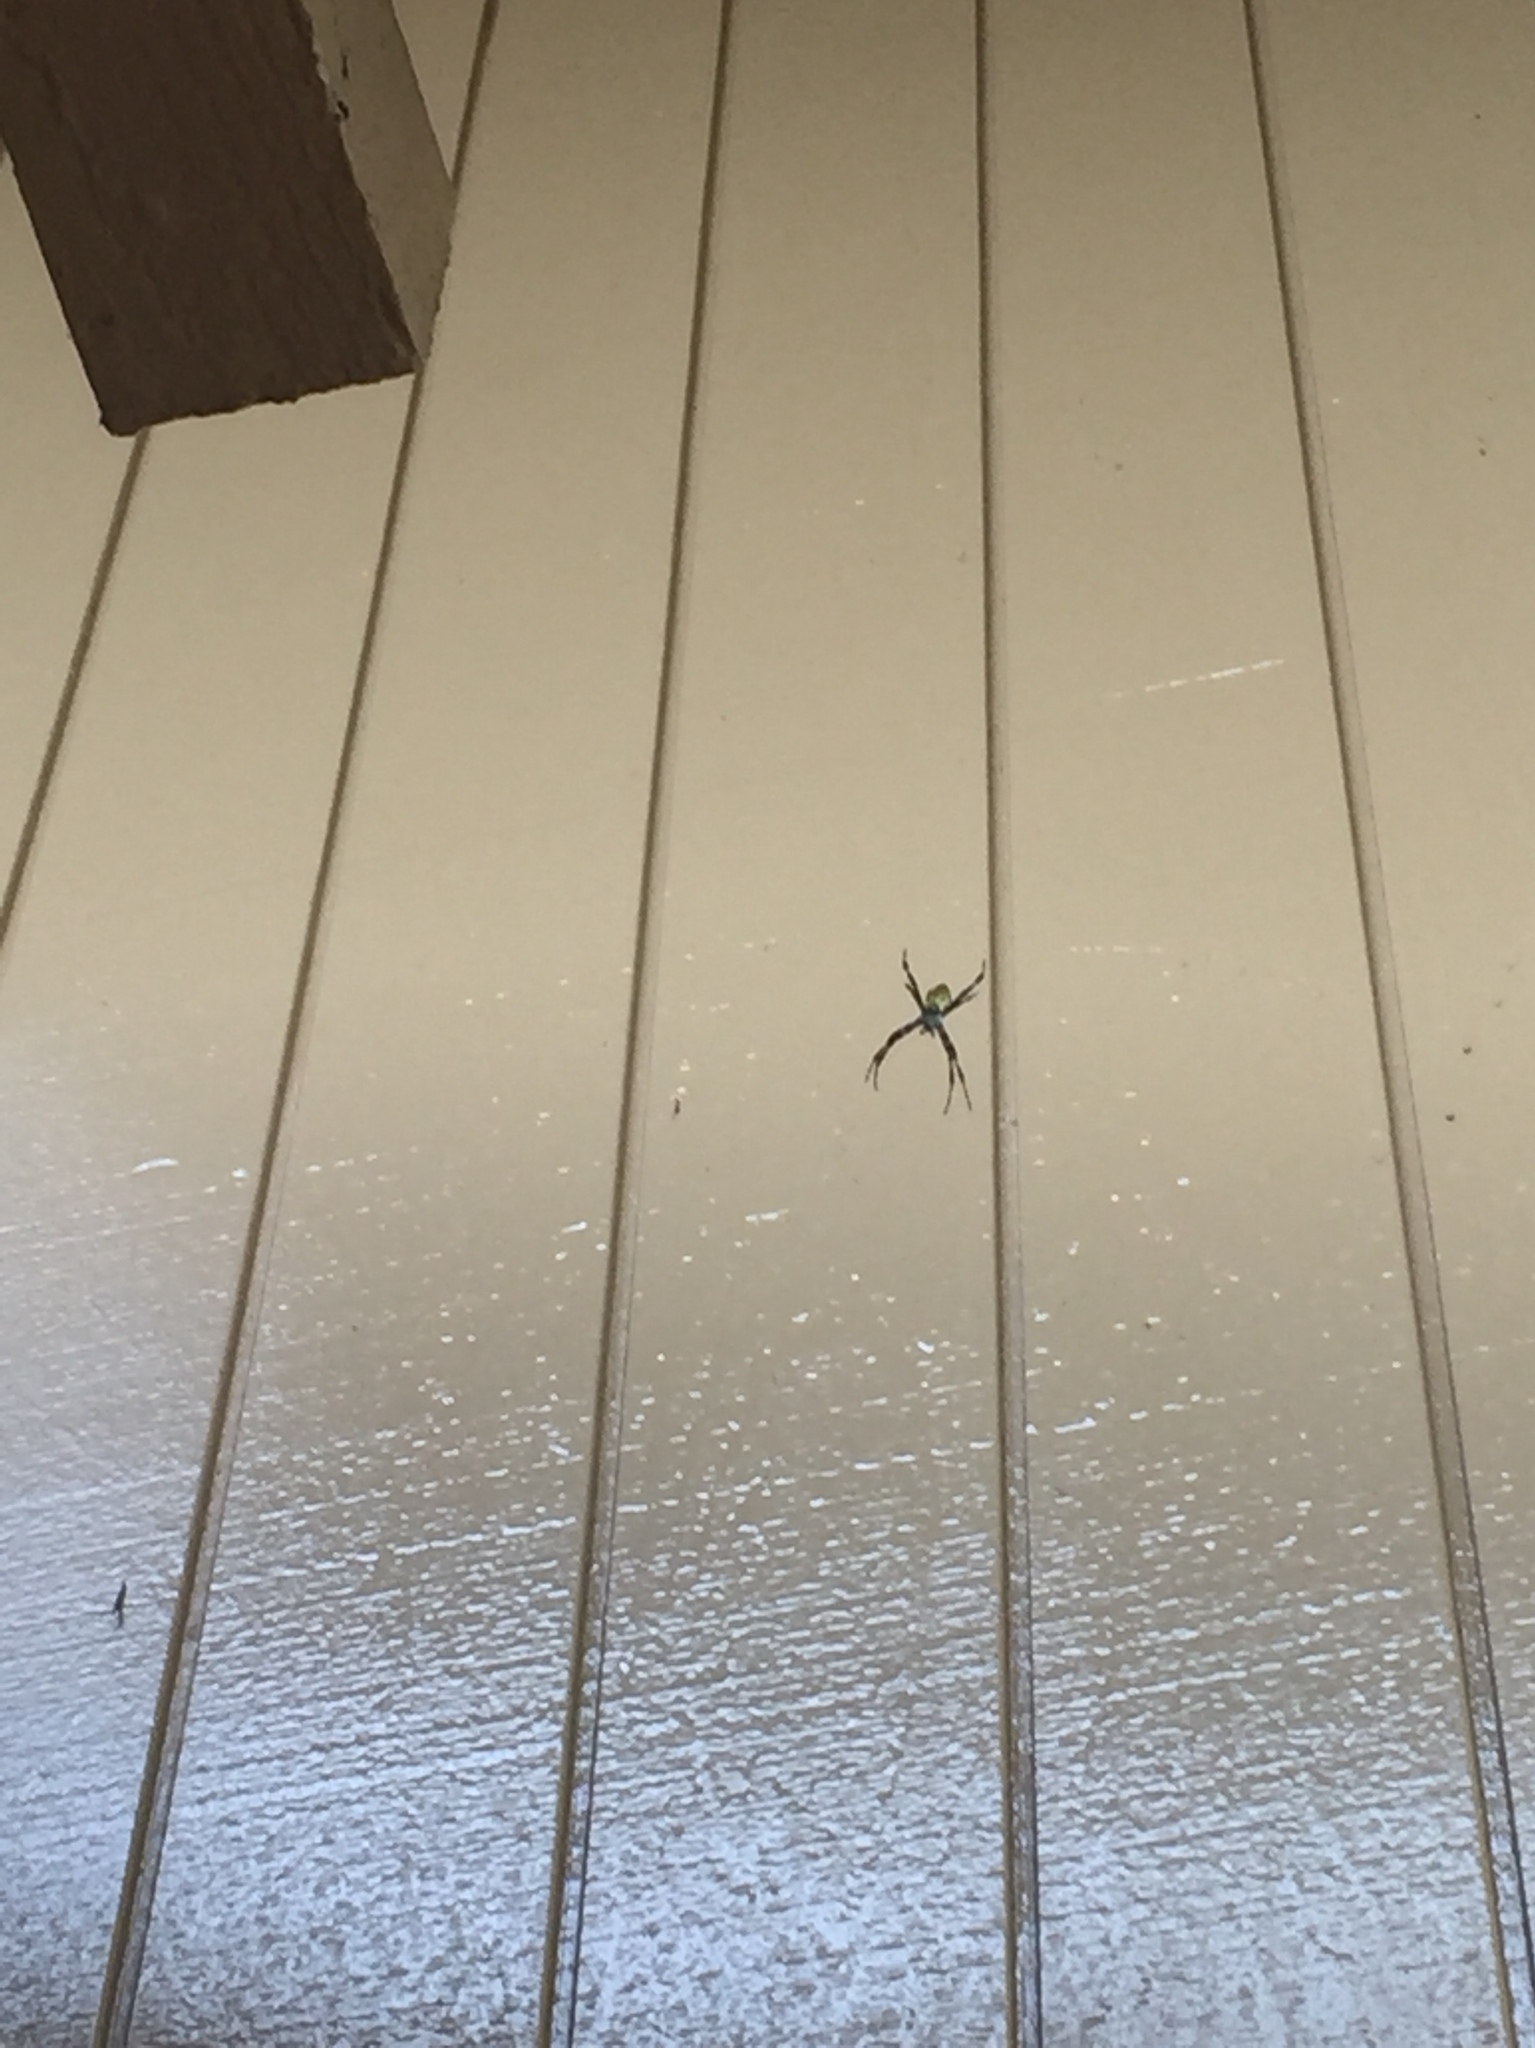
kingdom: Animalia
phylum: Arthropoda
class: Arachnida
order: Araneae
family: Araneidae
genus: Argiope
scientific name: Argiope appensa
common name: Garden spider
